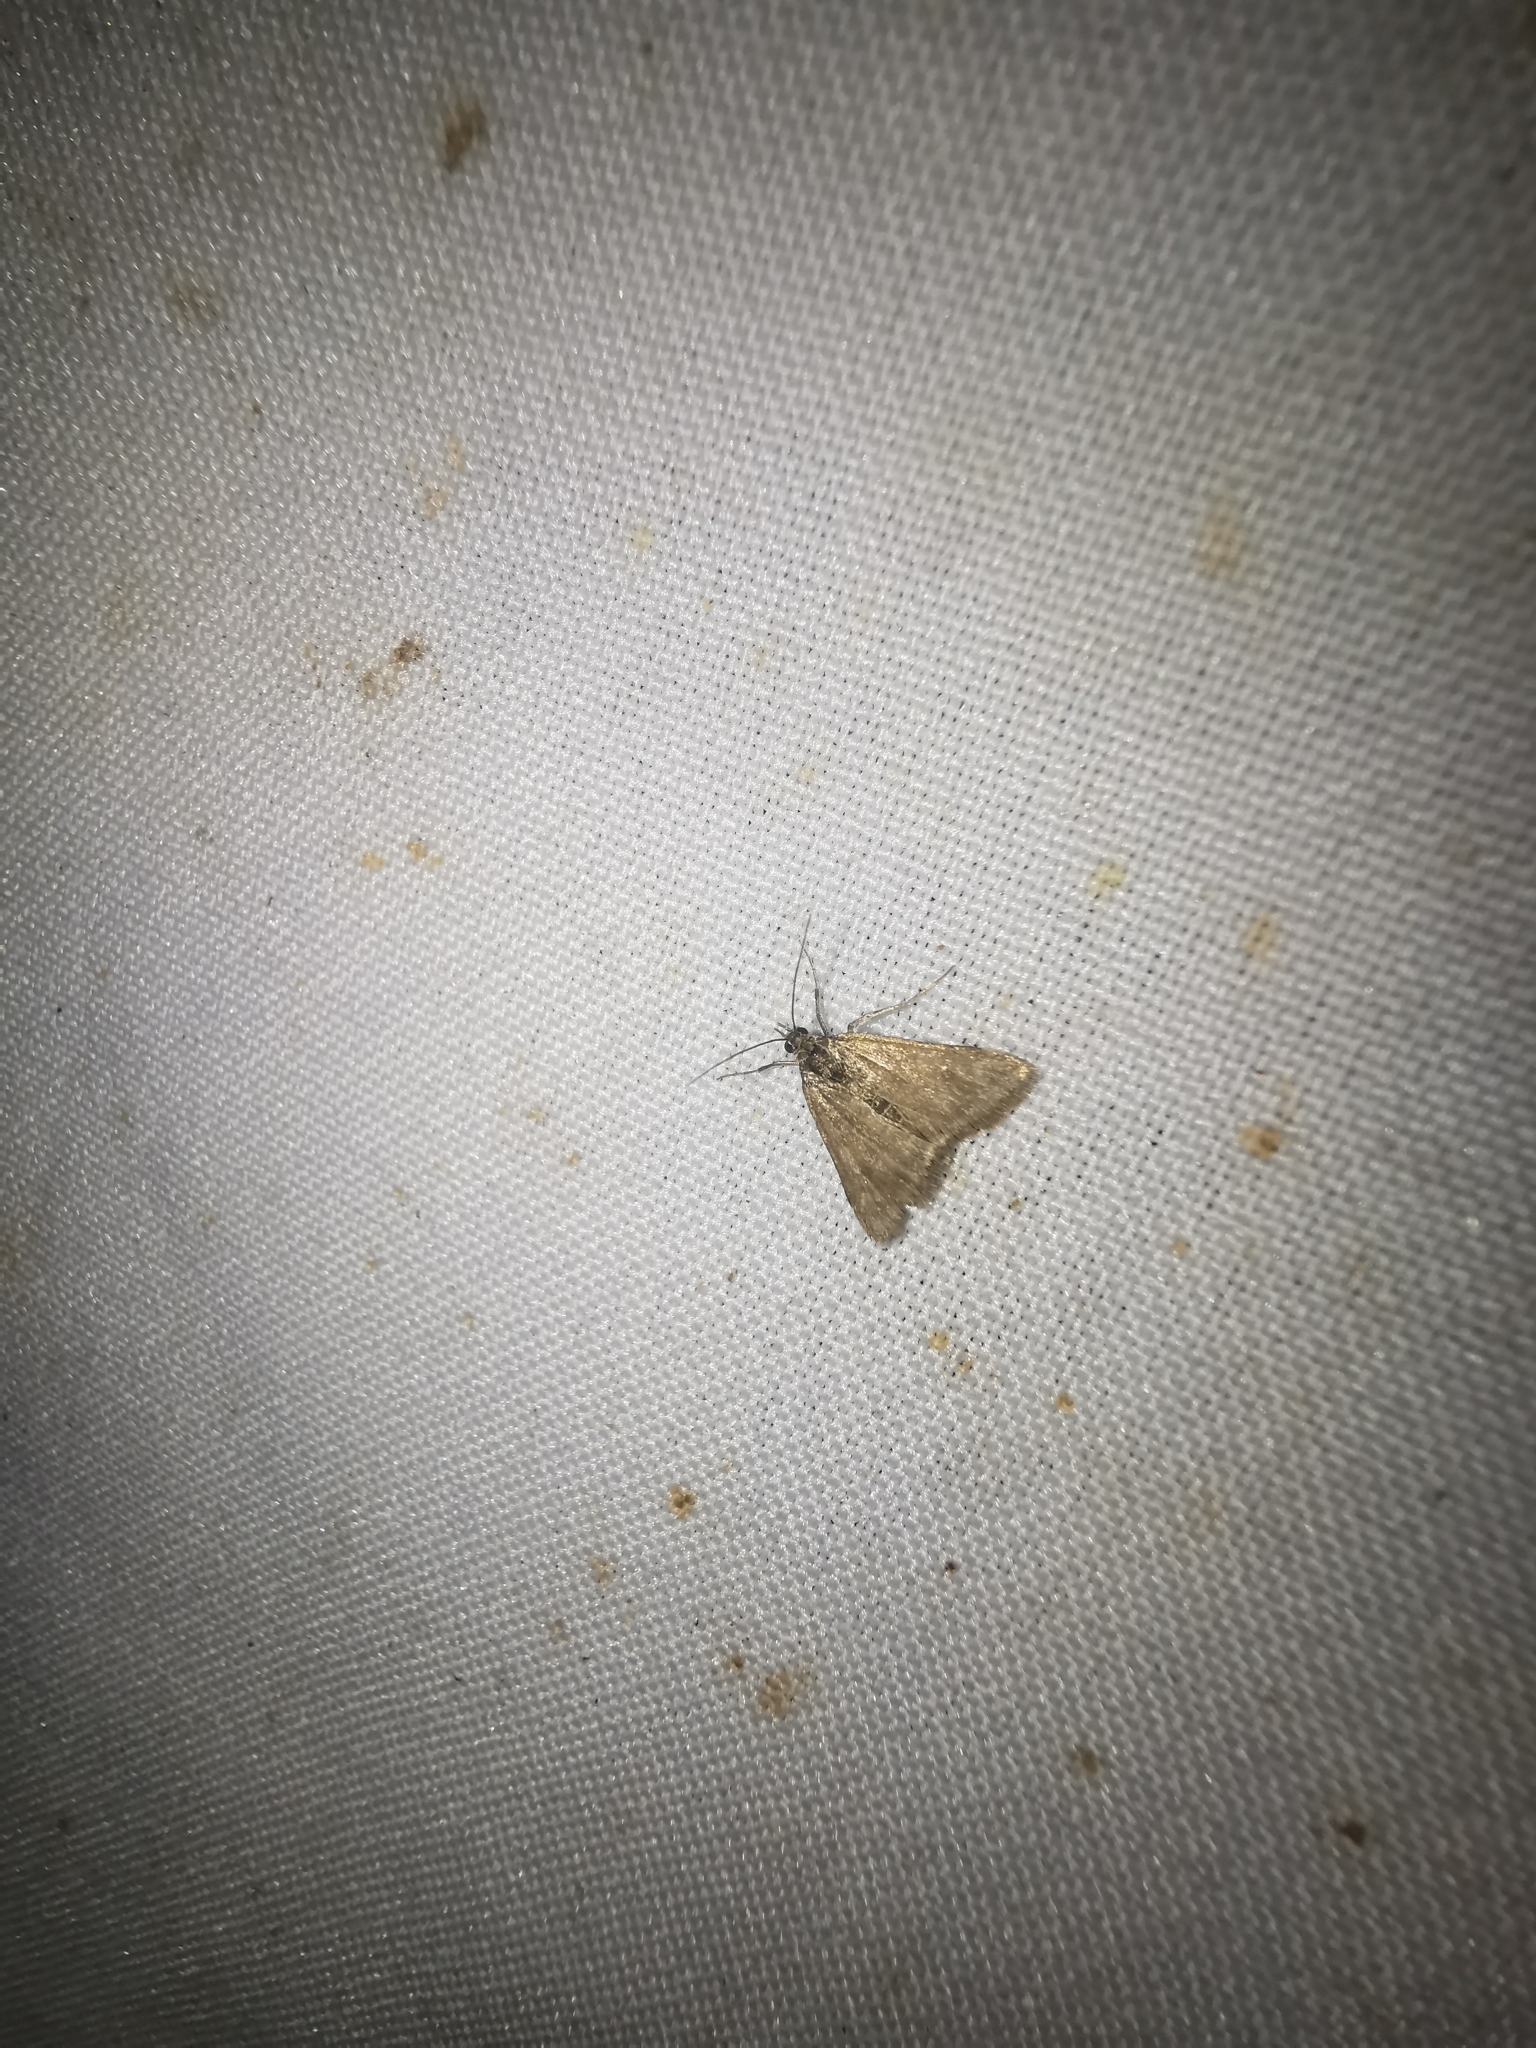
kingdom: Animalia
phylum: Arthropoda
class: Insecta
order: Lepidoptera
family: Crambidae
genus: Pyrausta
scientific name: Pyrausta despicata
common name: Straw-barred pearl
